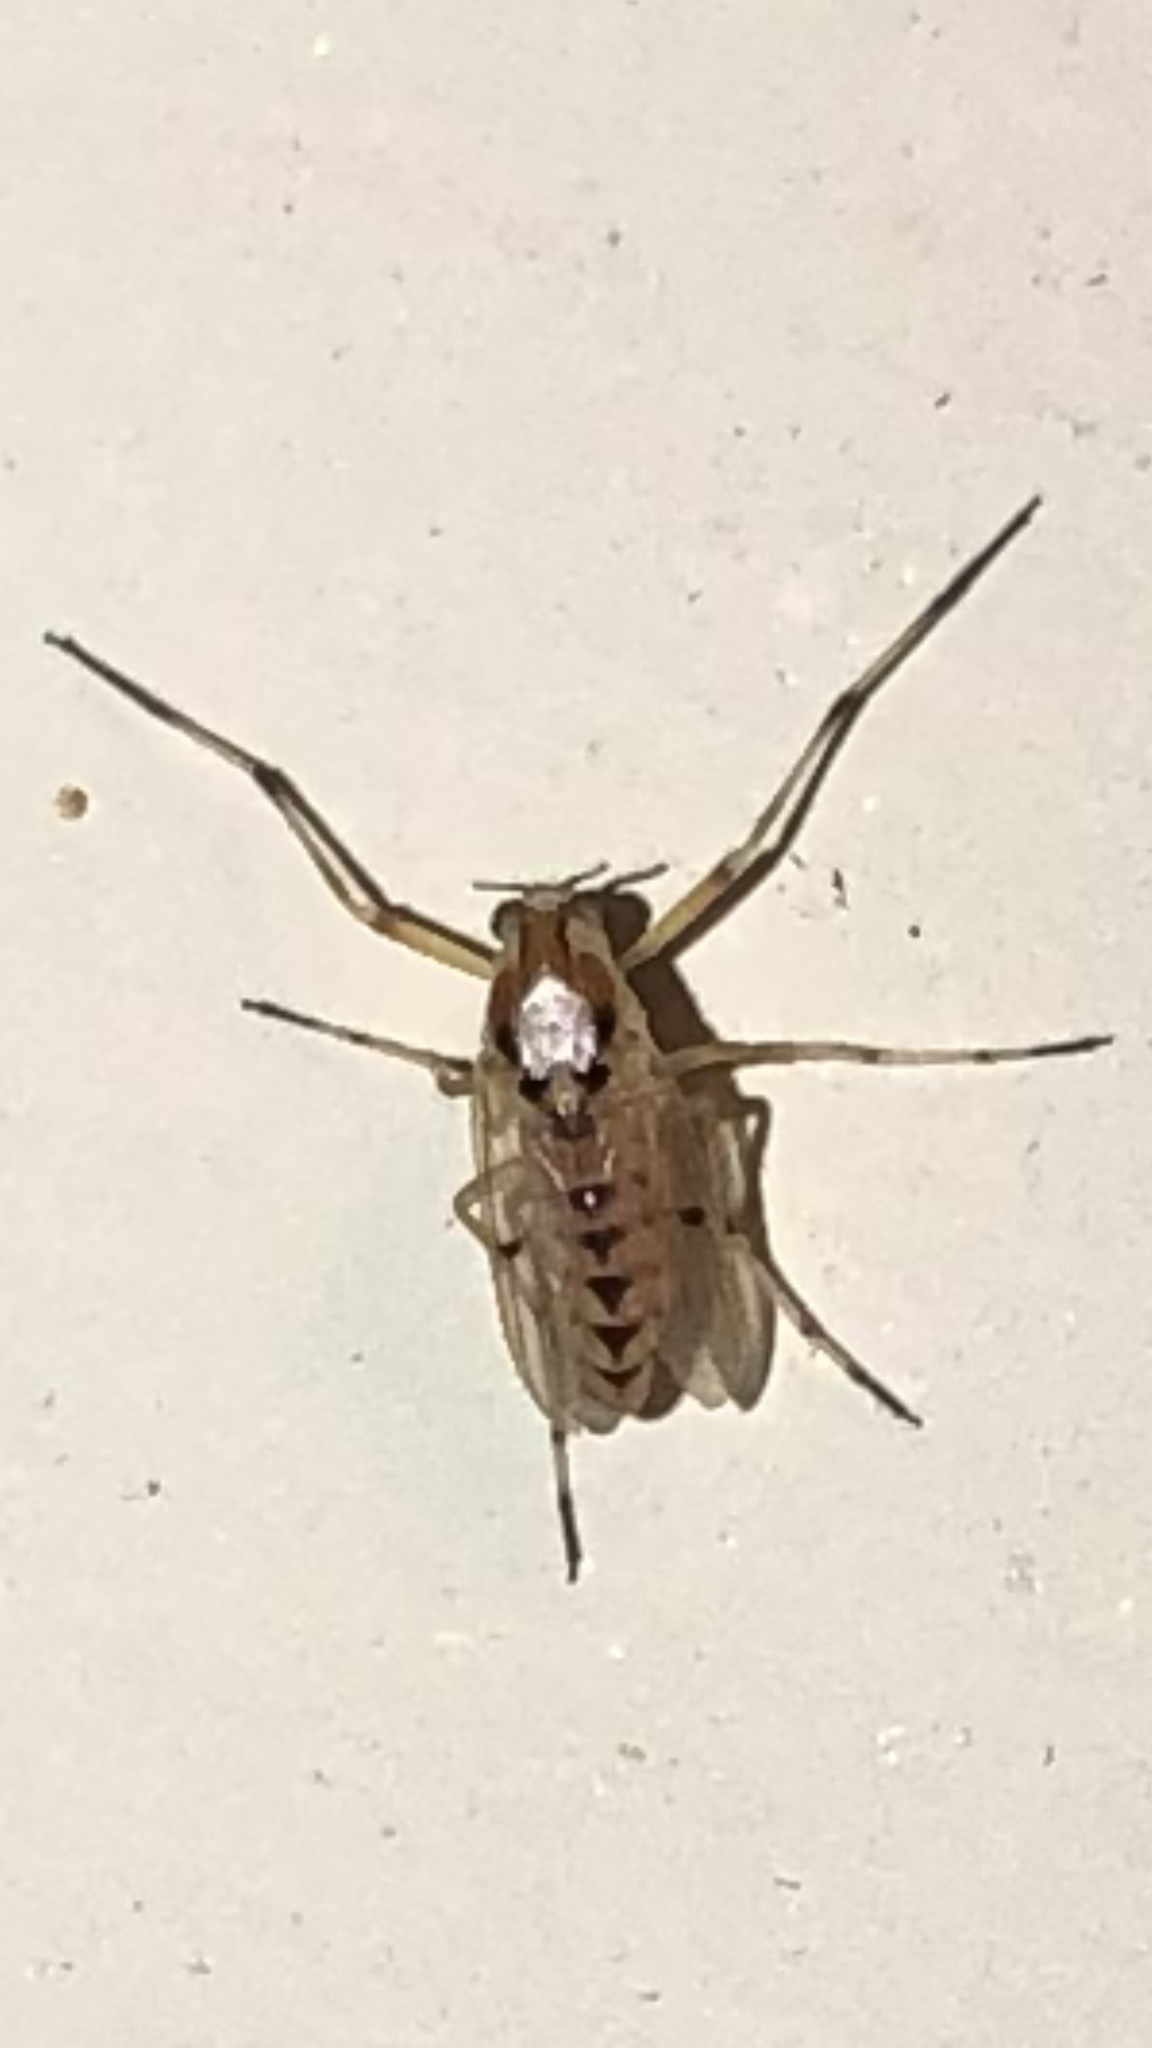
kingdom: Animalia
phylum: Arthropoda
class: Insecta
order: Diptera
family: Chironomidae
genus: Coelotanypus
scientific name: Coelotanypus concinnus
